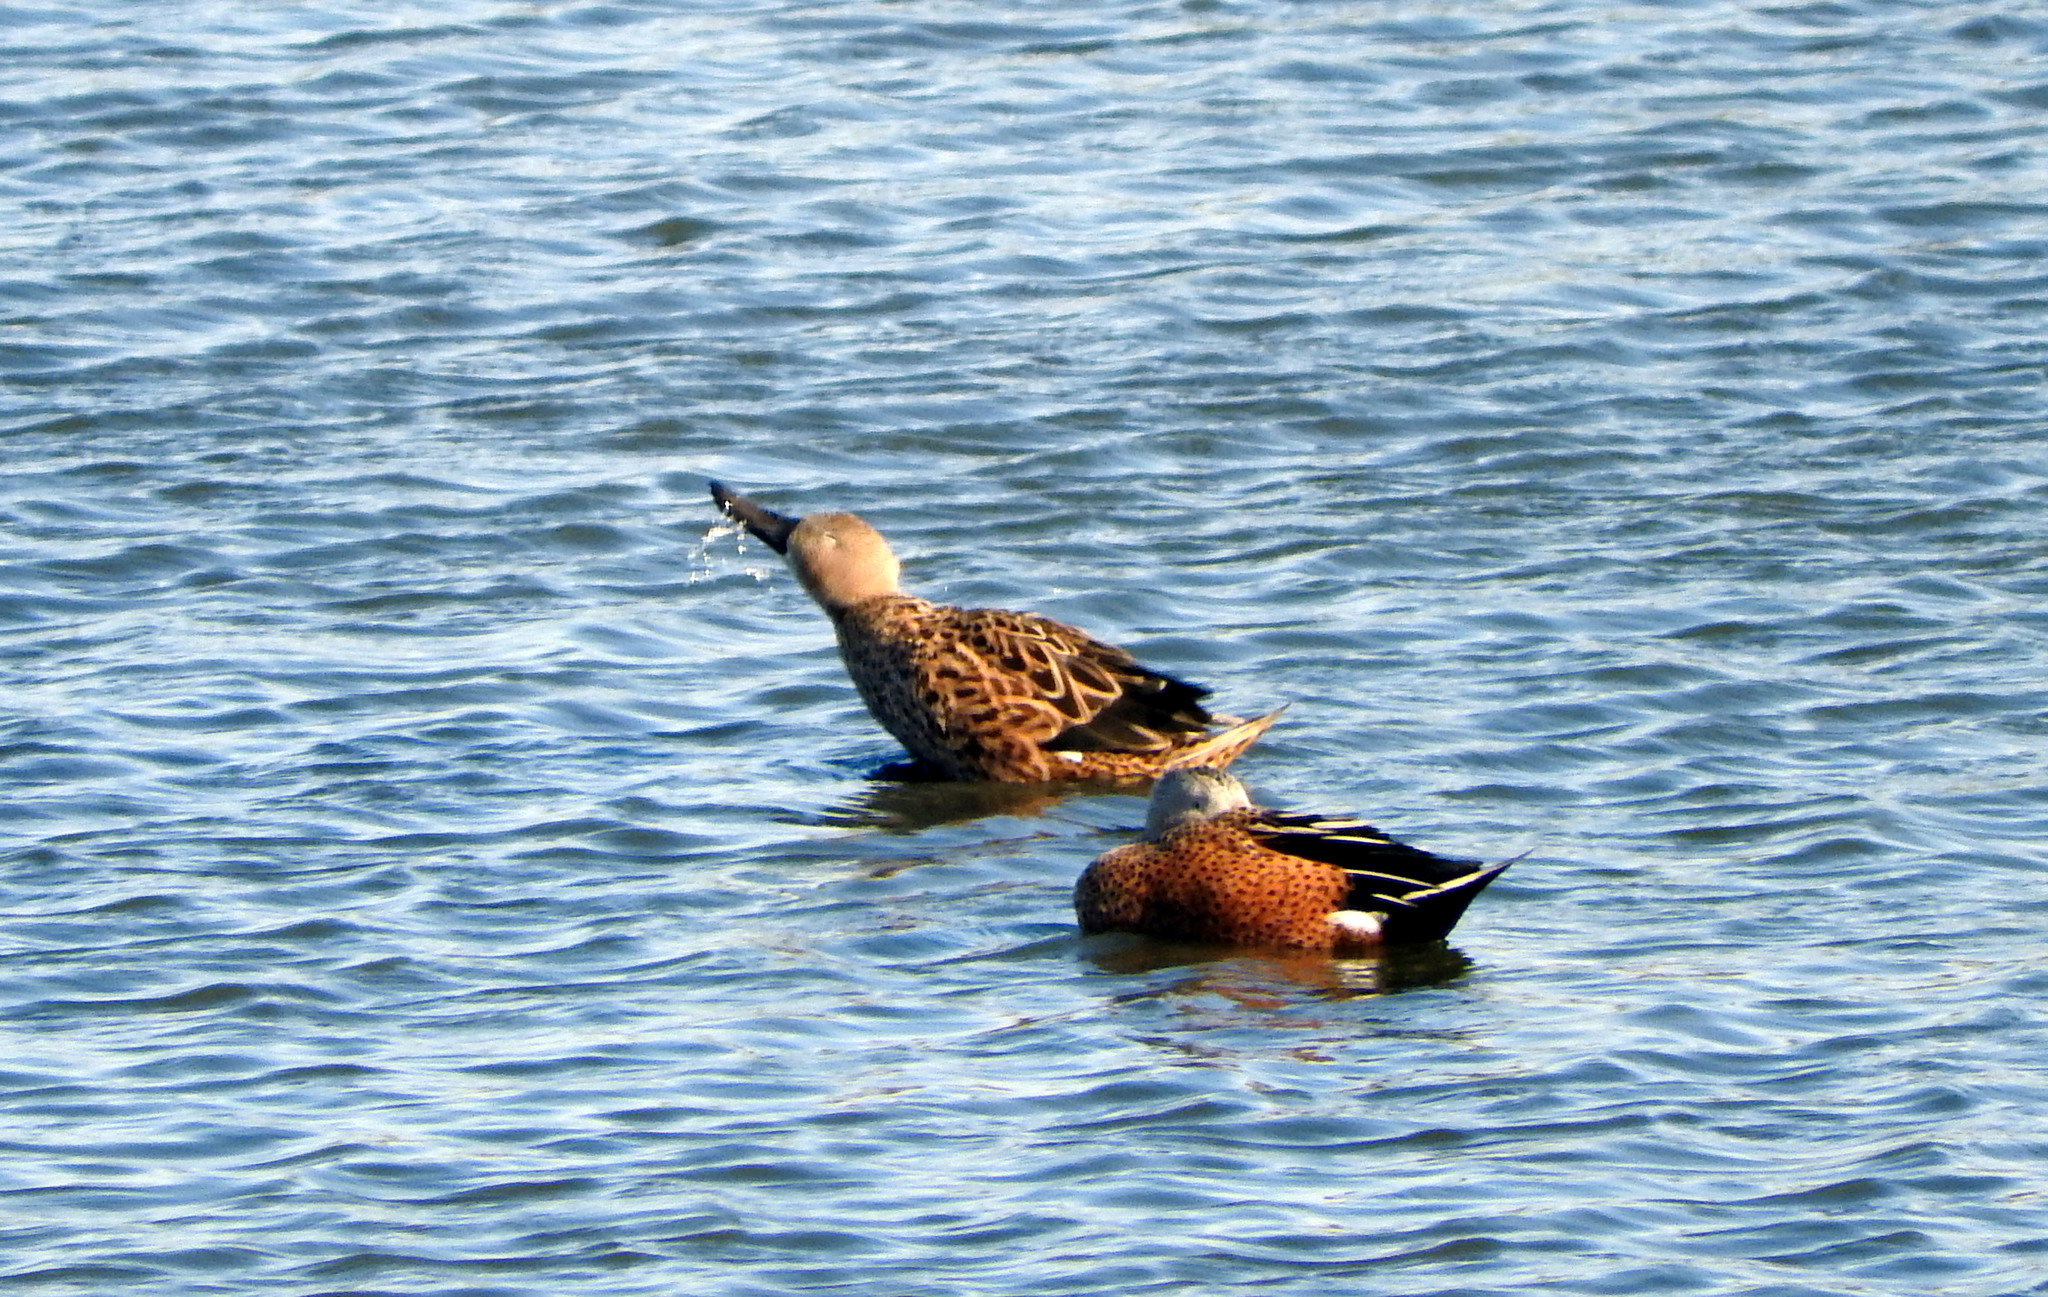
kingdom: Animalia
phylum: Chordata
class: Aves
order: Anseriformes
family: Anatidae
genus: Spatula
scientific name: Spatula platalea
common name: Red shoveler
